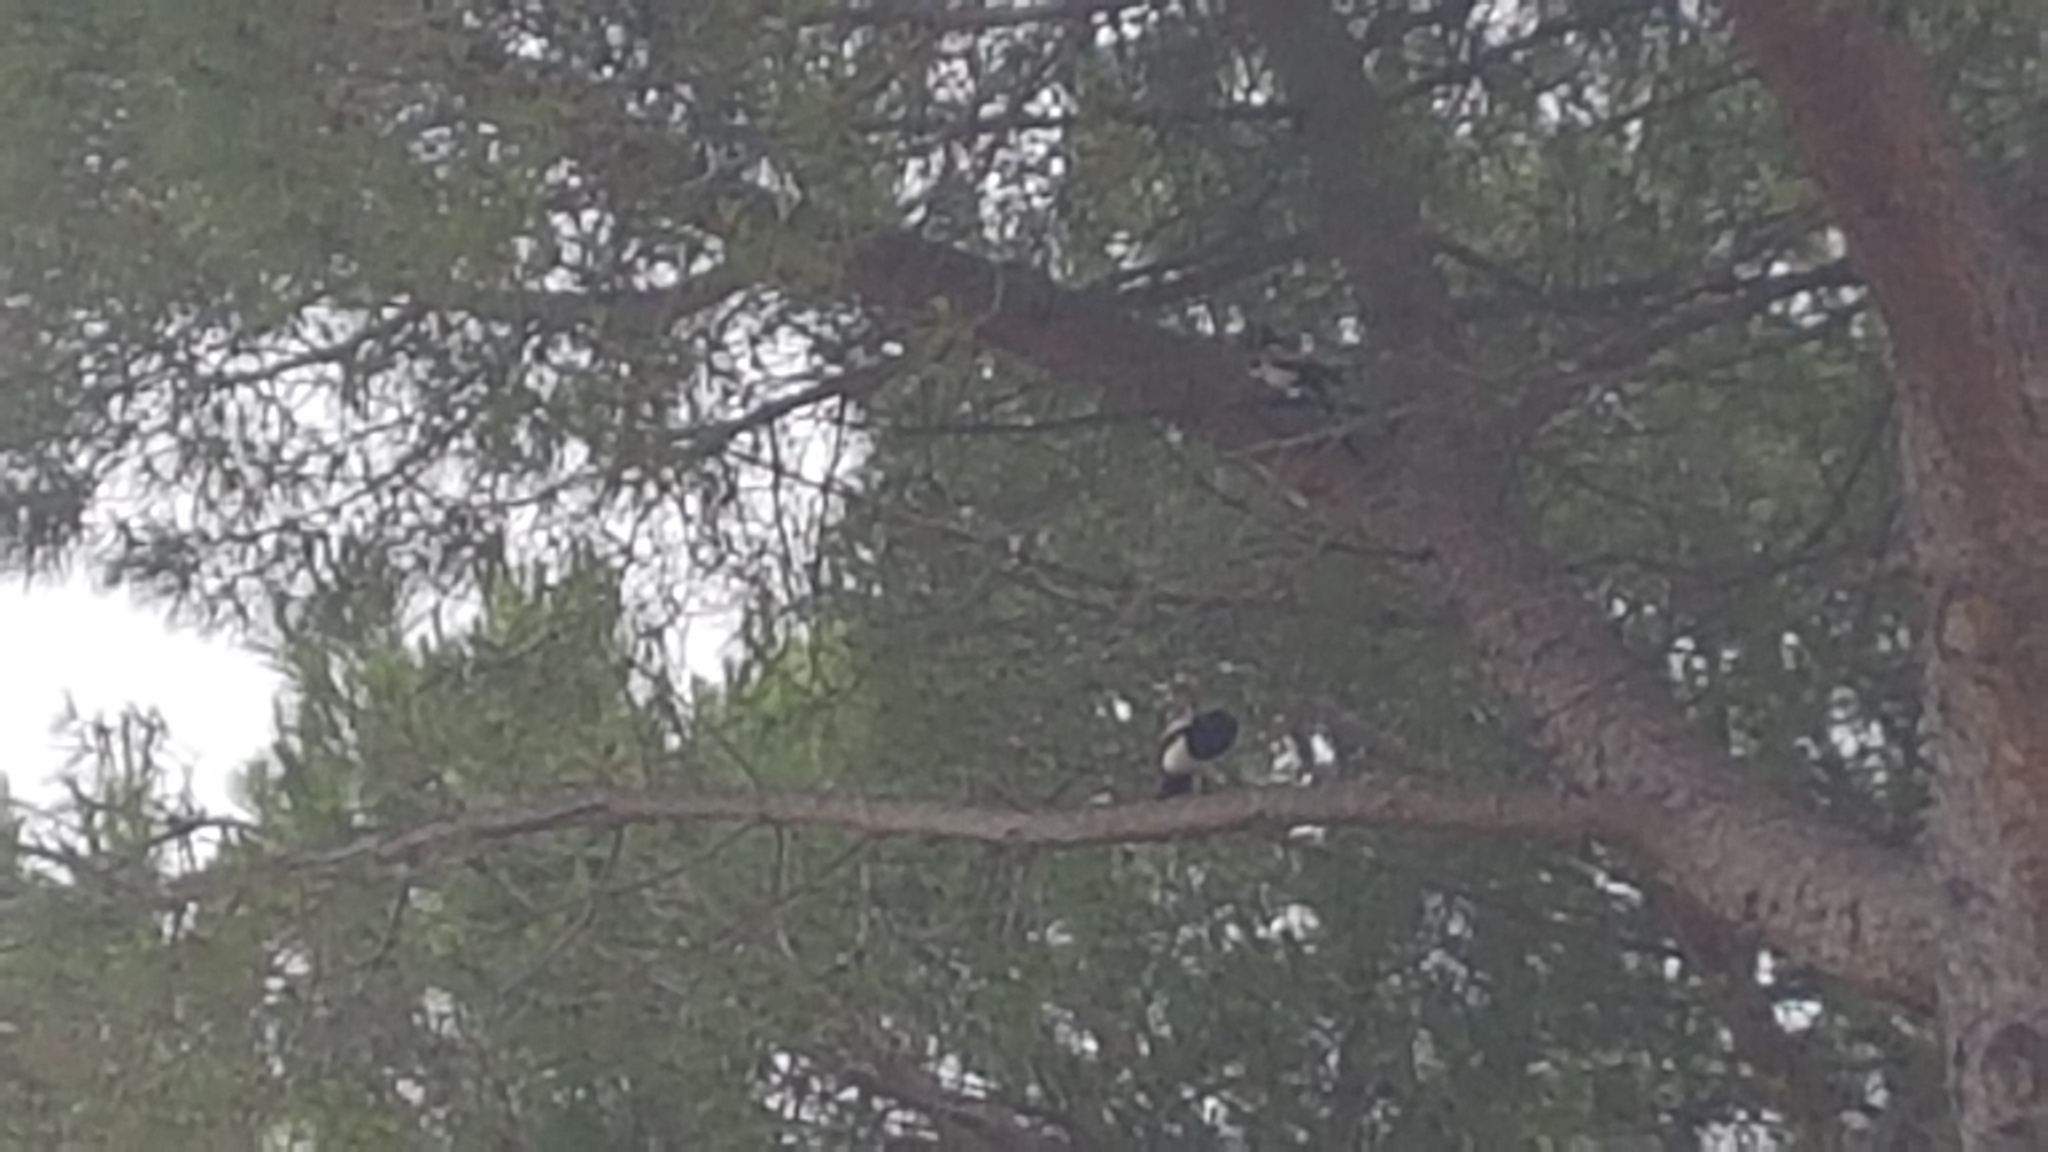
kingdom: Animalia
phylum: Chordata
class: Aves
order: Passeriformes
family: Corvidae
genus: Pica
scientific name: Pica pica
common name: Eurasian magpie
